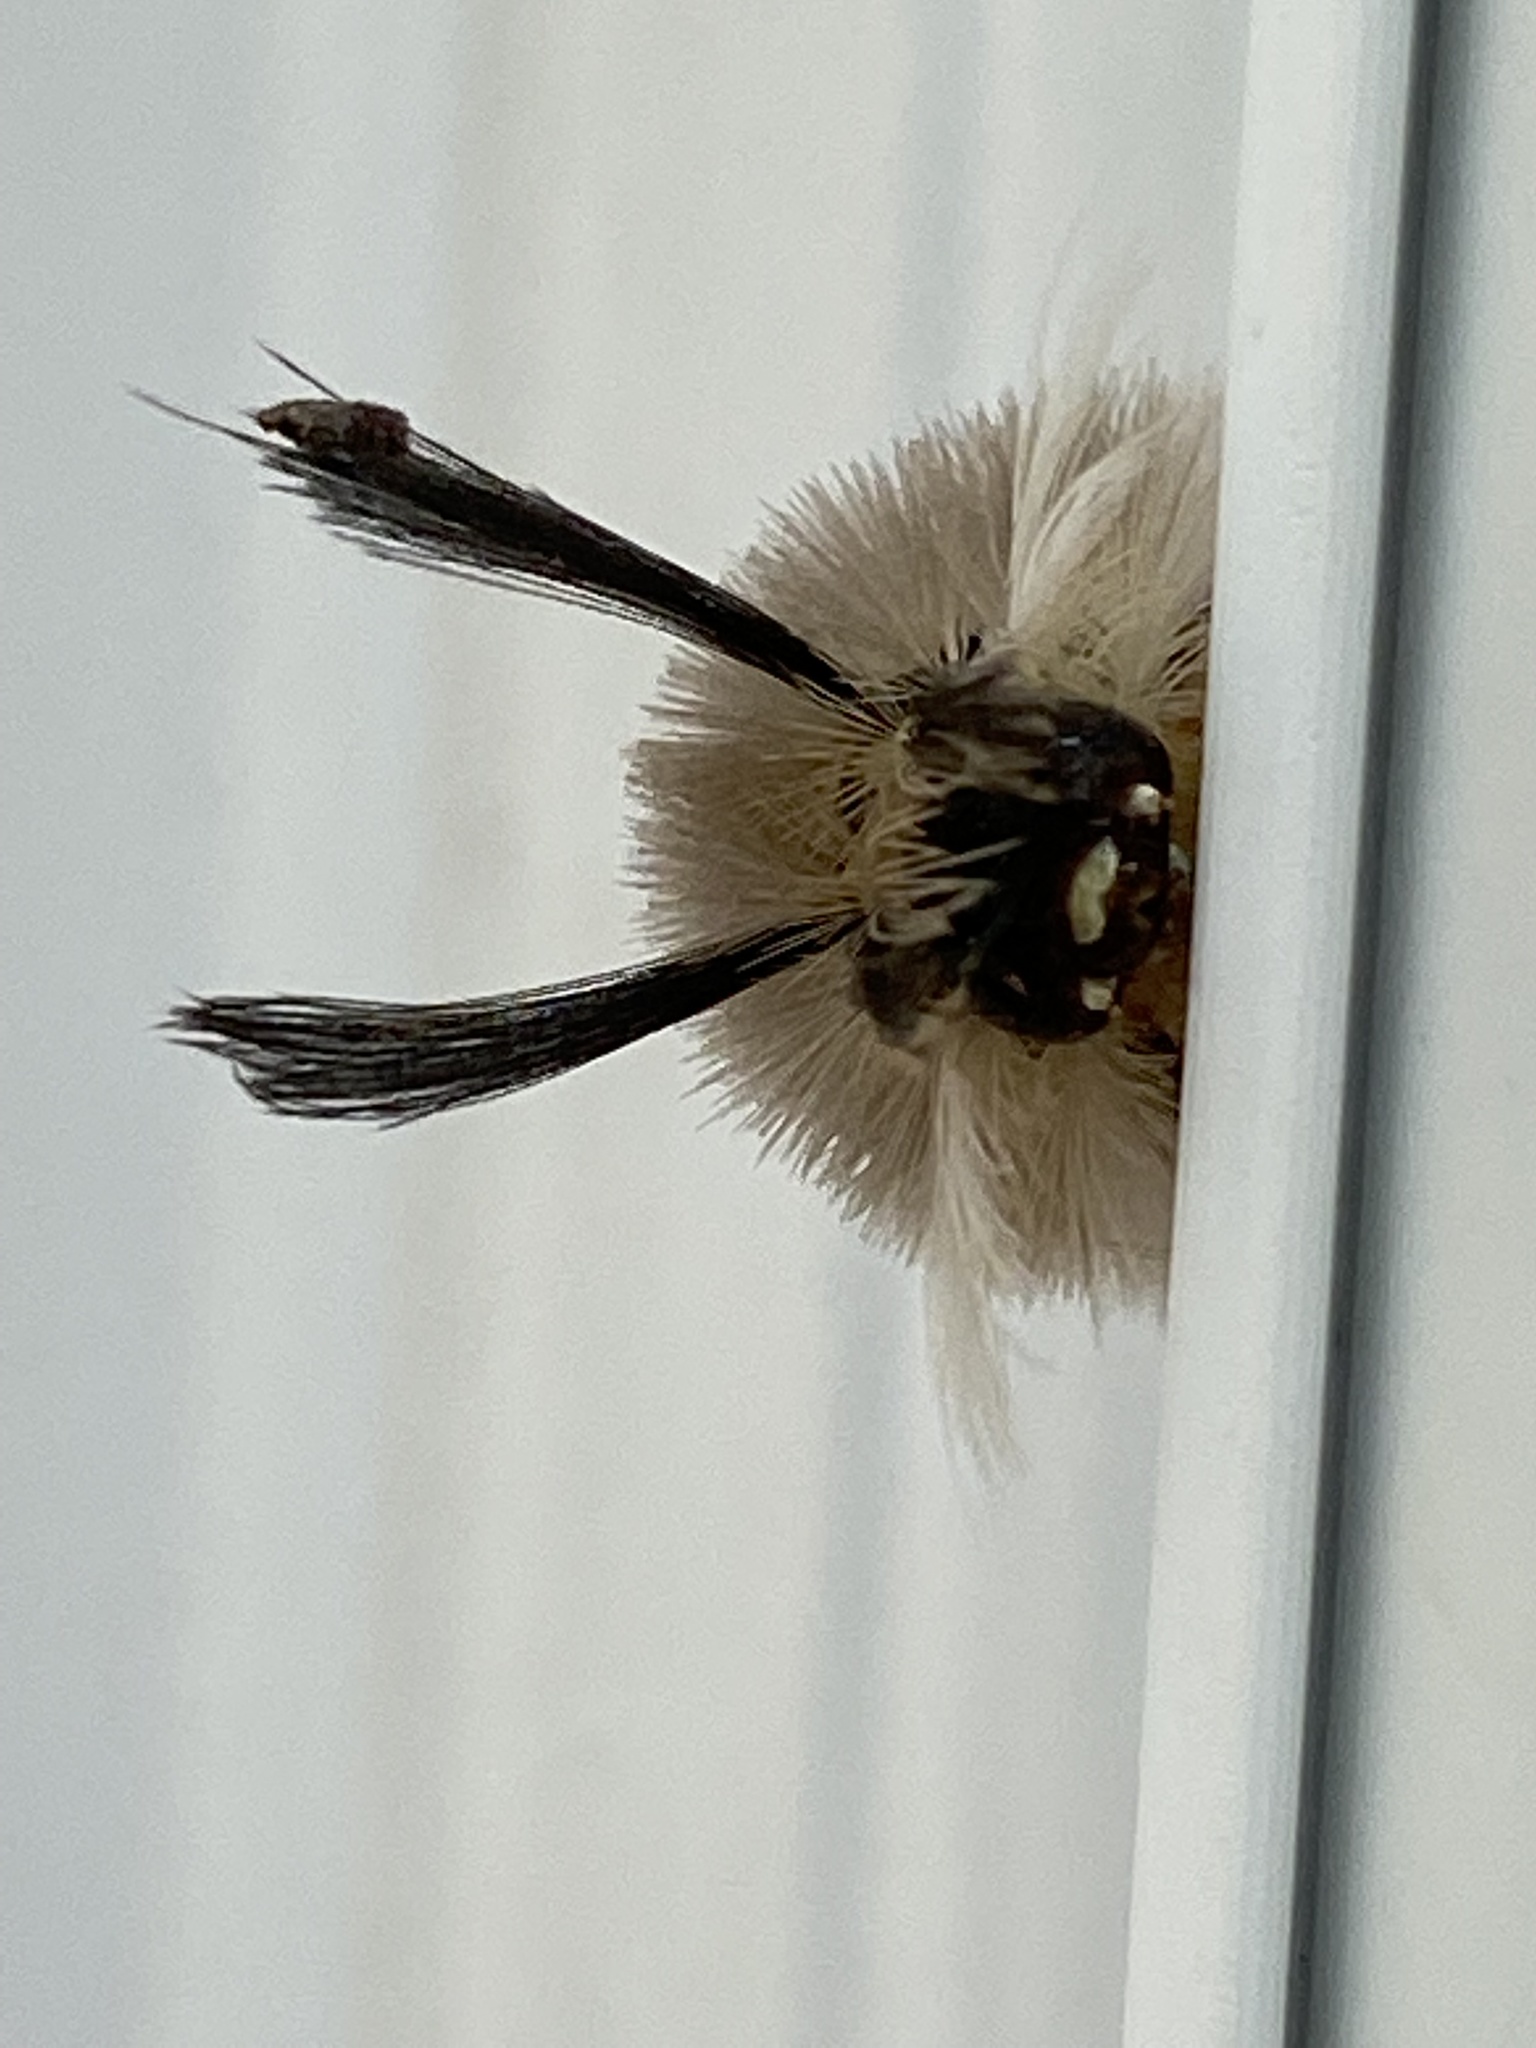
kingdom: Animalia
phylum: Arthropoda
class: Insecta
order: Lepidoptera
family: Erebidae
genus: Halysidota
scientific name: Halysidota tessellaris
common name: Banded tussock moth
